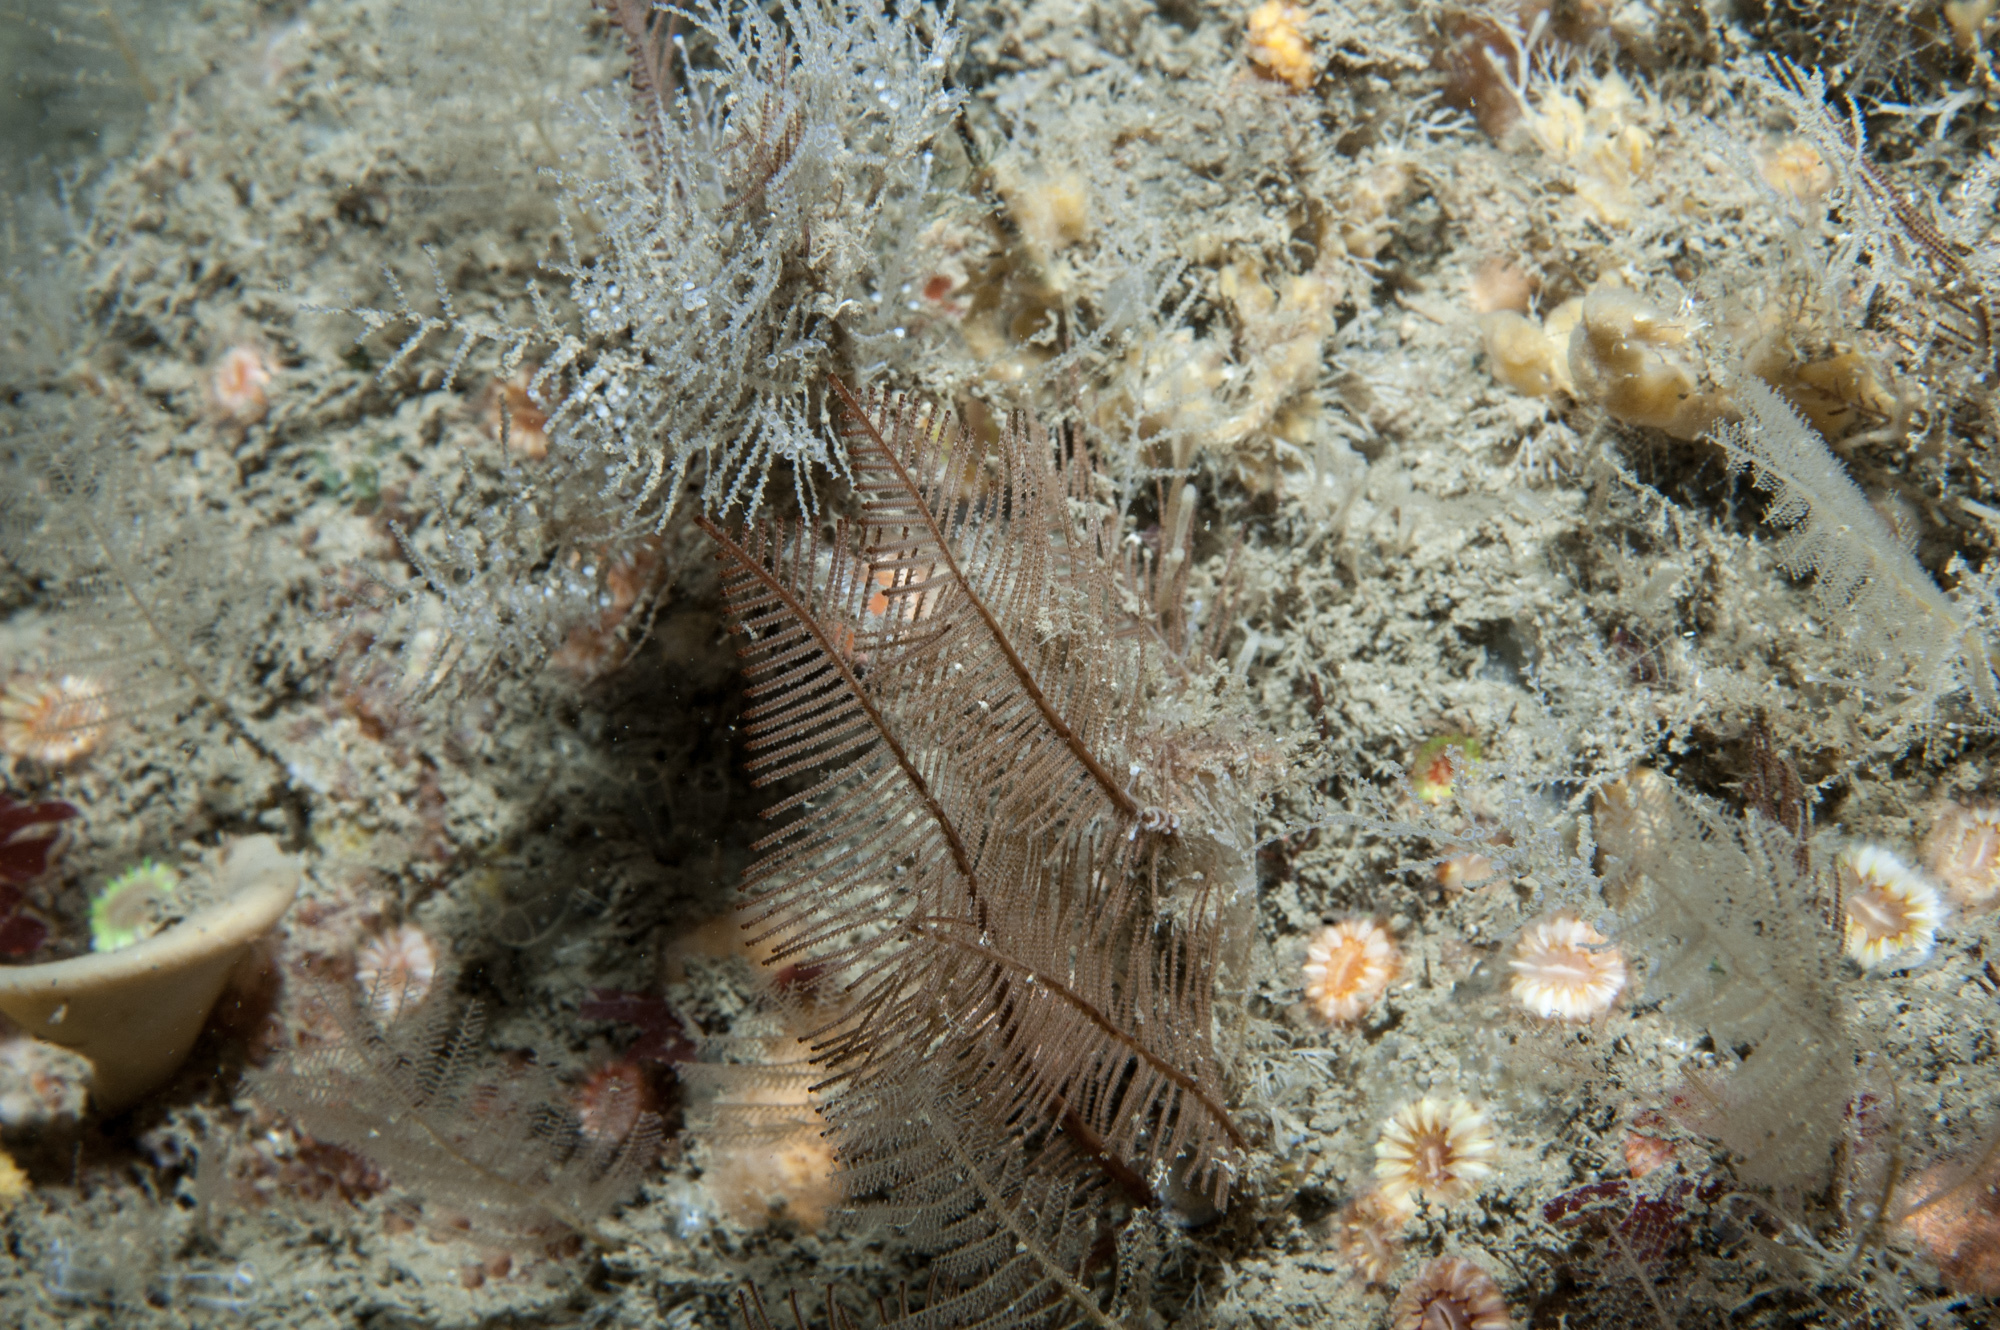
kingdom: Animalia
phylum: Cnidaria
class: Hydrozoa
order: Leptothecata
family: Sertulariidae
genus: Diphasia
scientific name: Diphasia alata
